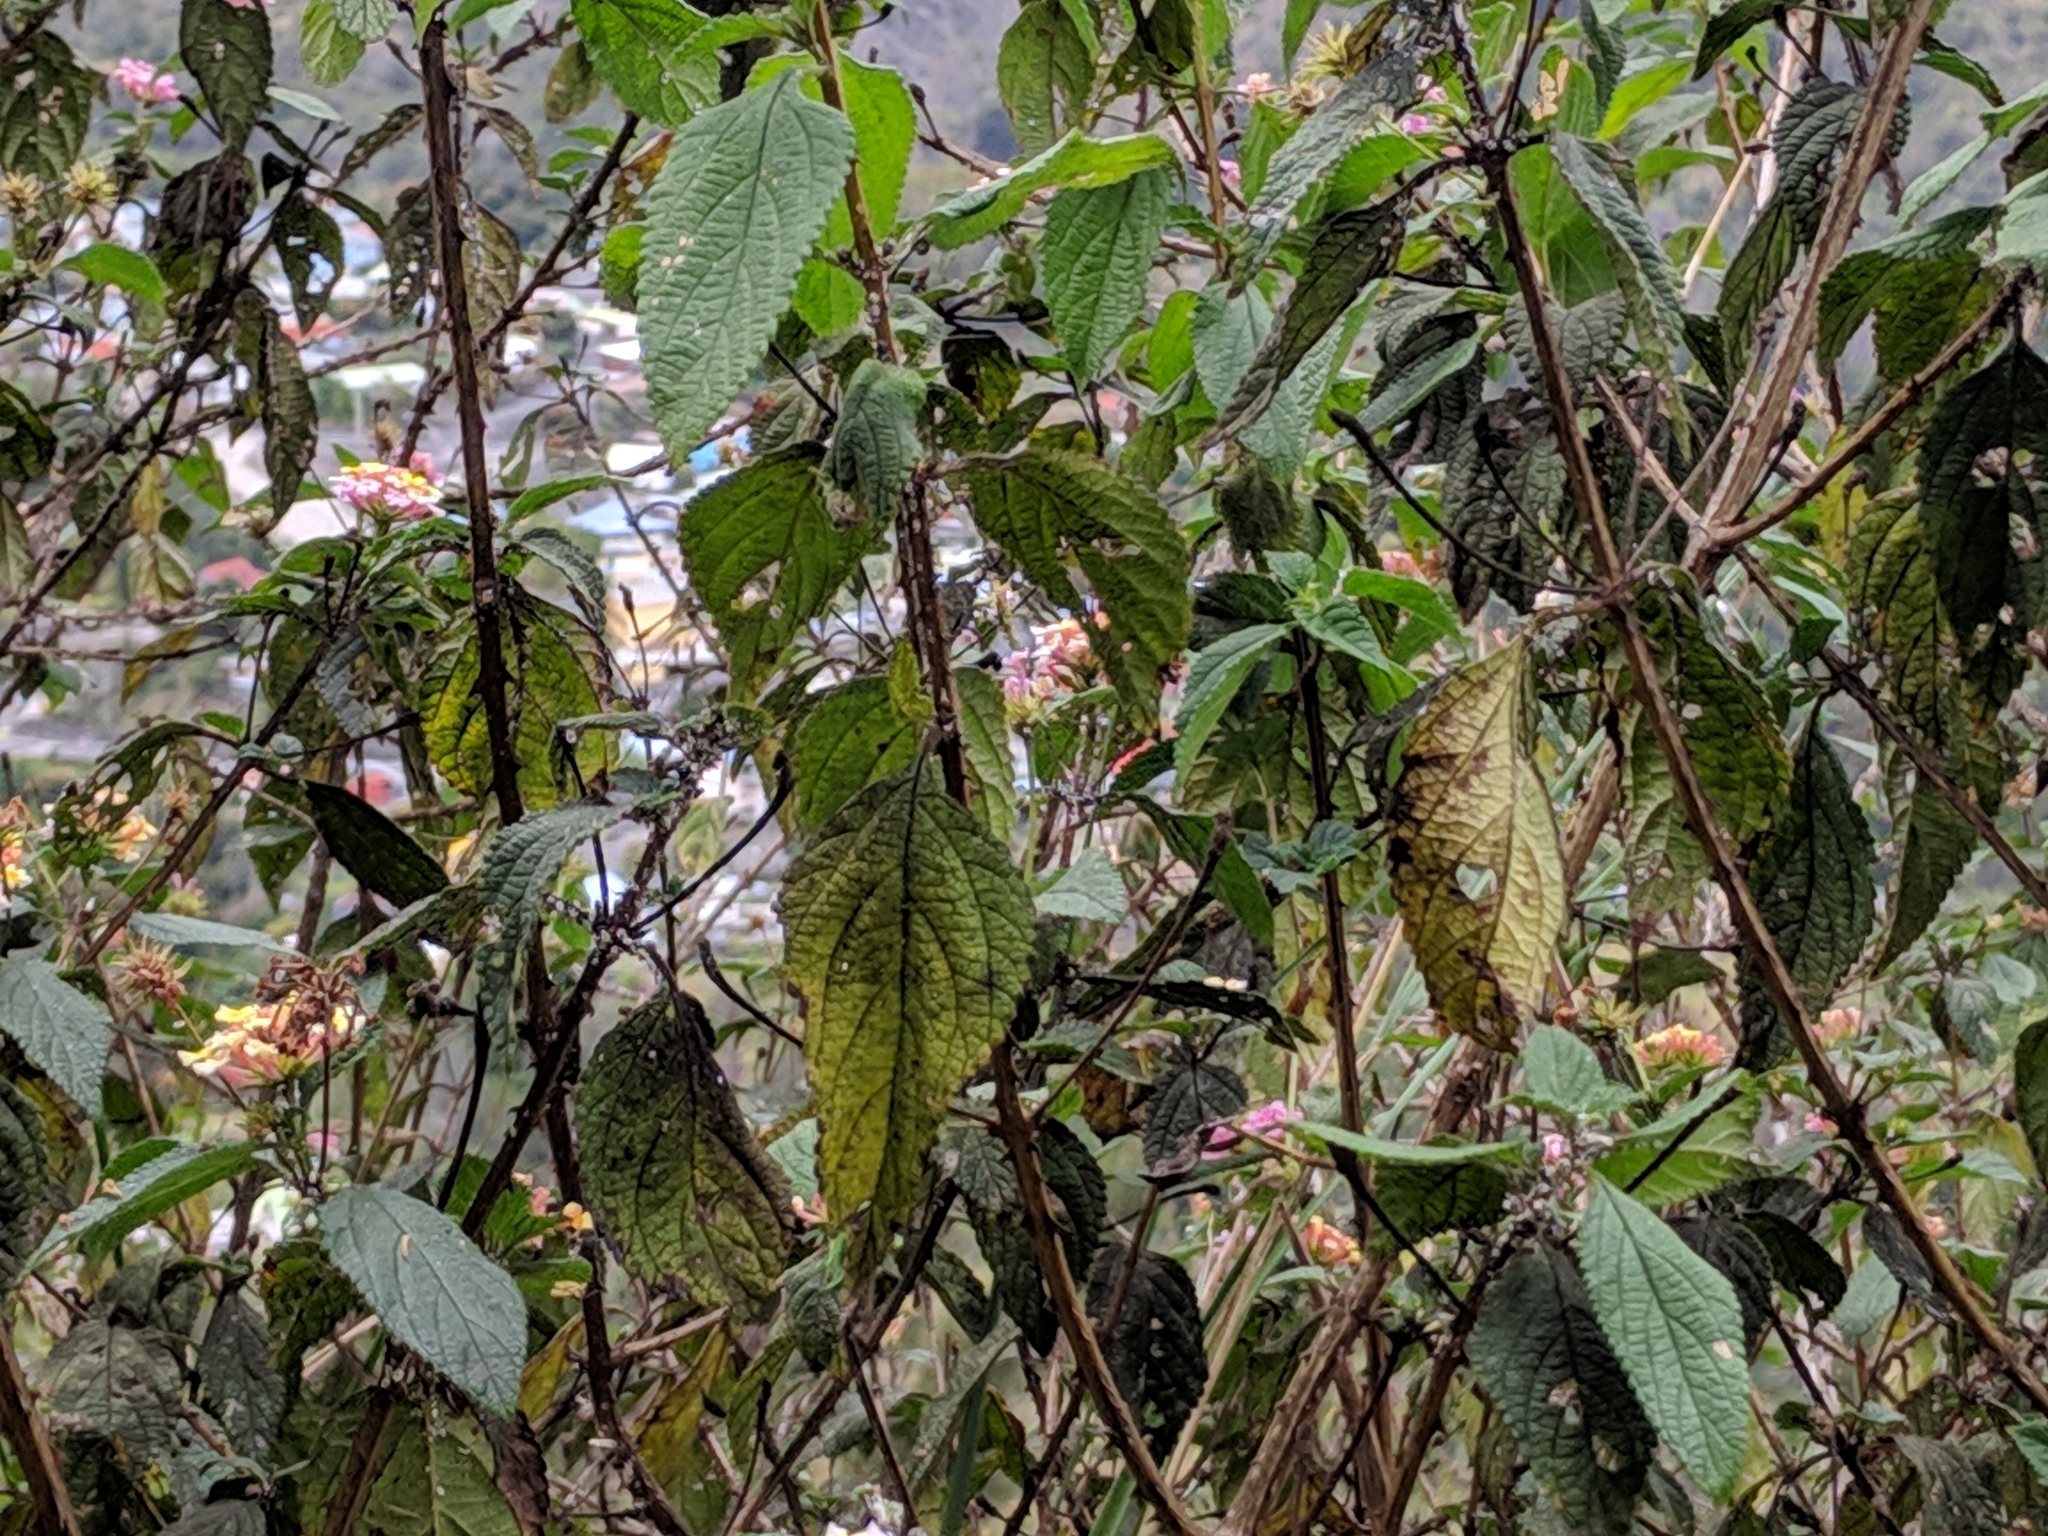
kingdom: Plantae
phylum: Tracheophyta
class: Magnoliopsida
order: Lamiales
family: Verbenaceae
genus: Lantana
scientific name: Lantana camara
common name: Lantana
